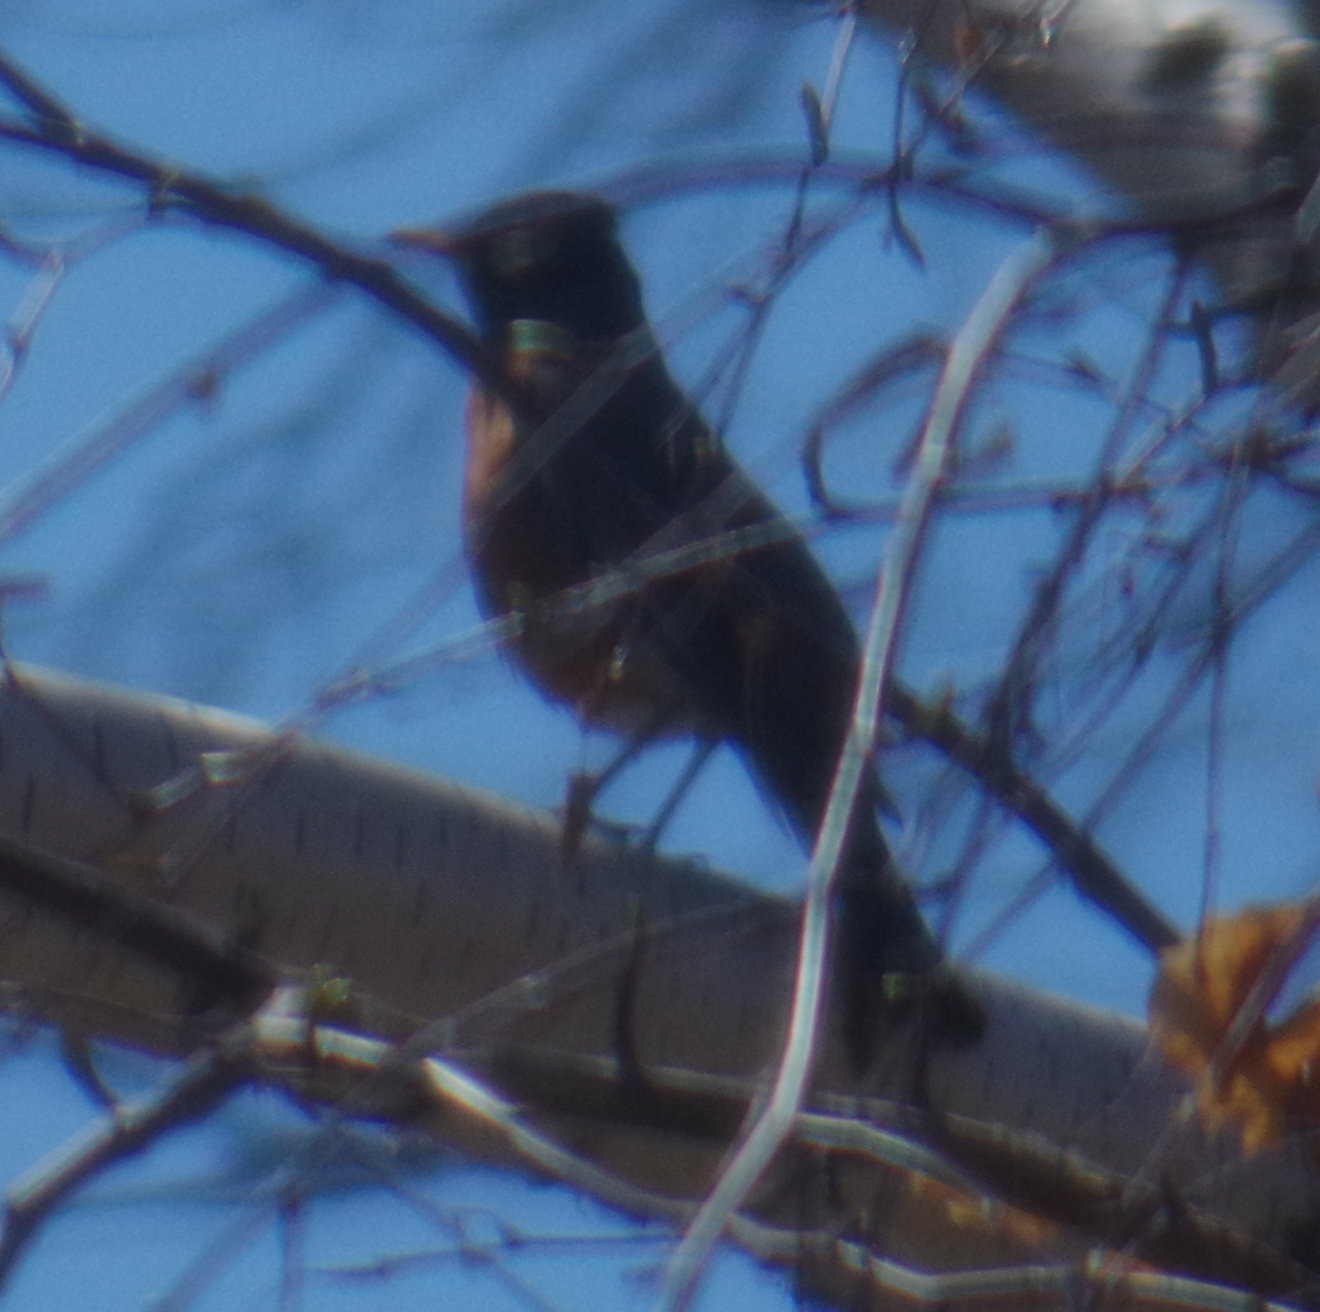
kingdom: Animalia
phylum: Chordata
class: Aves
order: Passeriformes
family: Turdidae
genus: Turdus
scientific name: Turdus migratorius
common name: American robin
